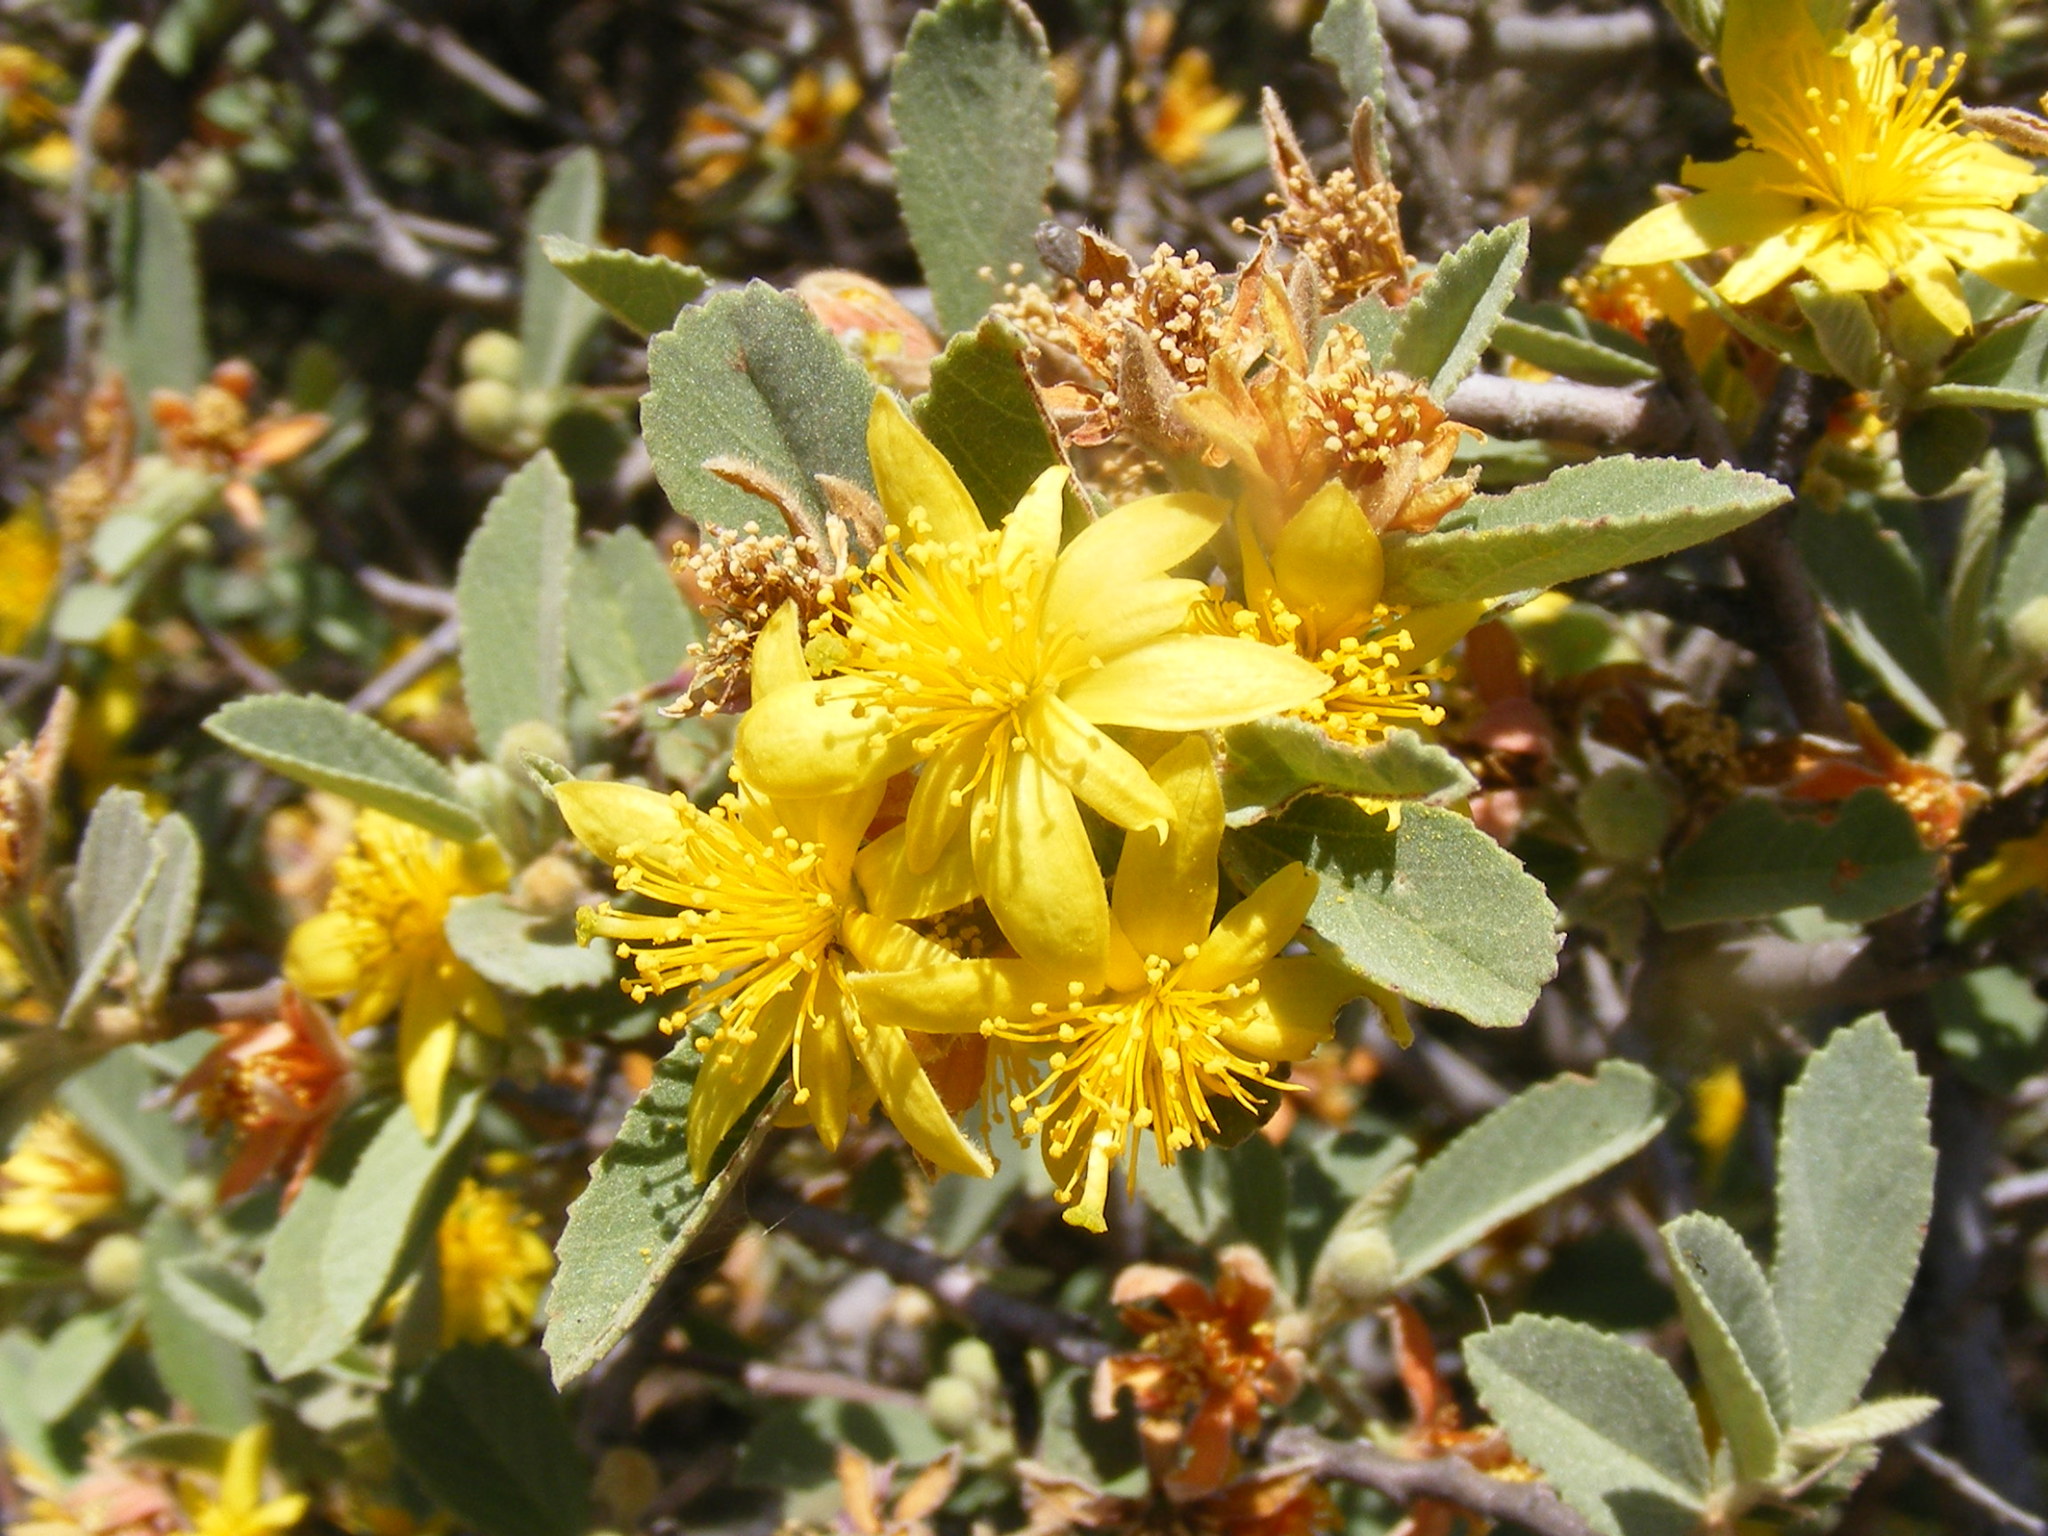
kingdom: Plantae
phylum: Tracheophyta
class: Magnoliopsida
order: Malvales
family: Malvaceae
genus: Grewia
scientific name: Grewia flava
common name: Brandy bush
